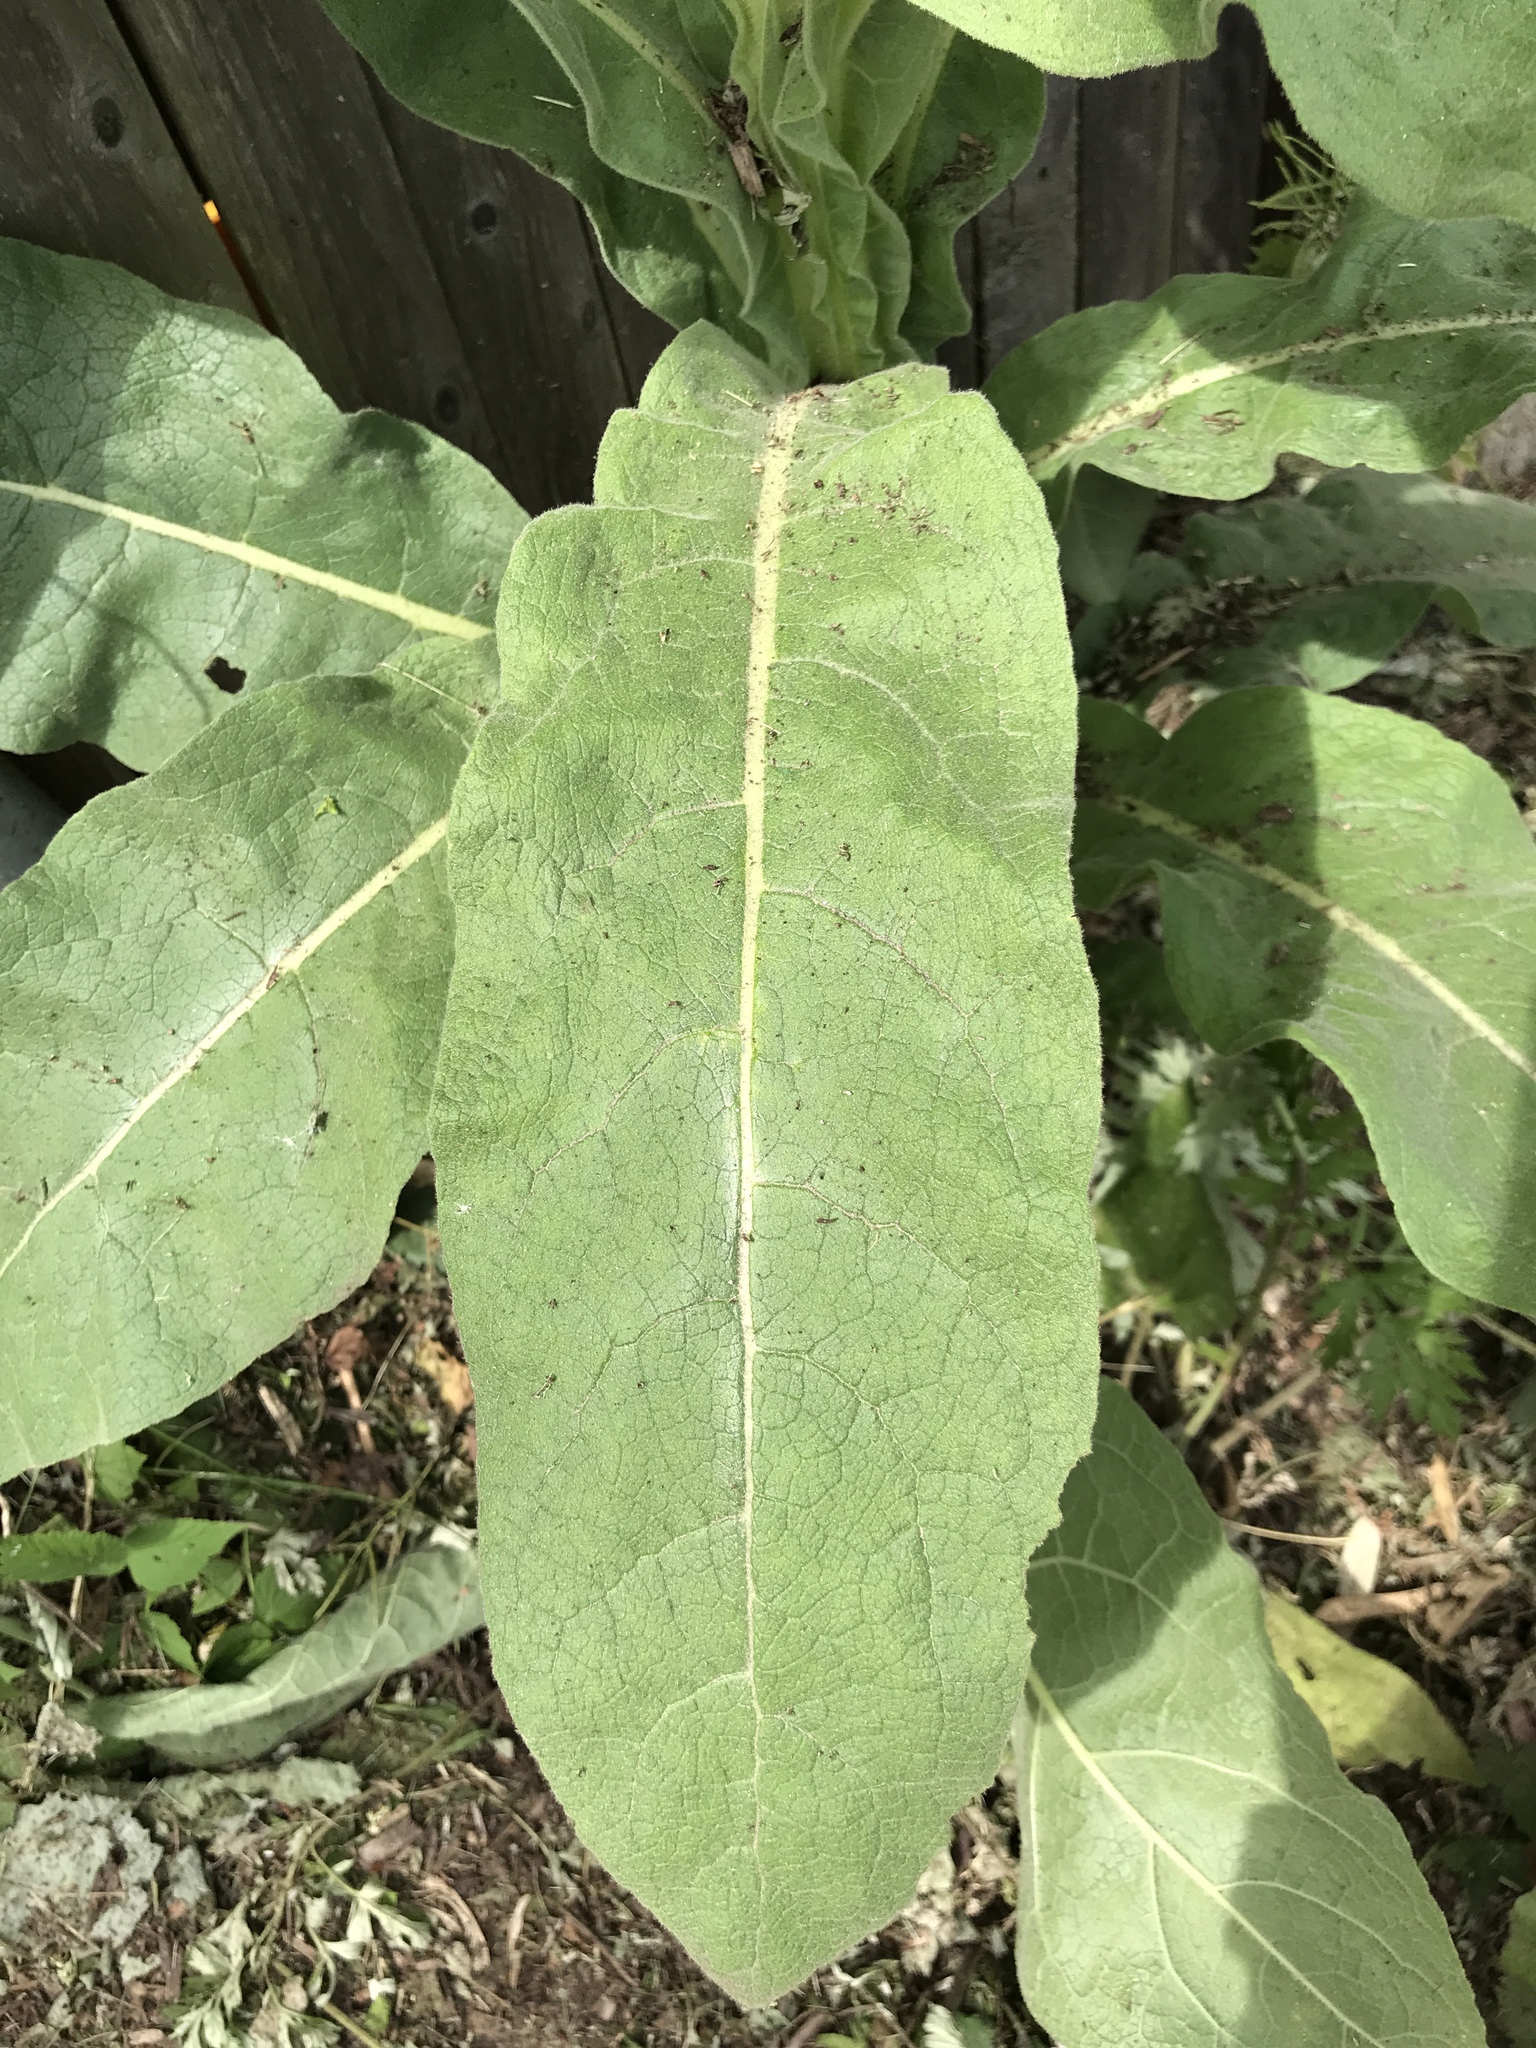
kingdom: Plantae
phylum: Tracheophyta
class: Magnoliopsida
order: Lamiales
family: Scrophulariaceae
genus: Verbascum
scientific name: Verbascum thapsus
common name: Common mullein
